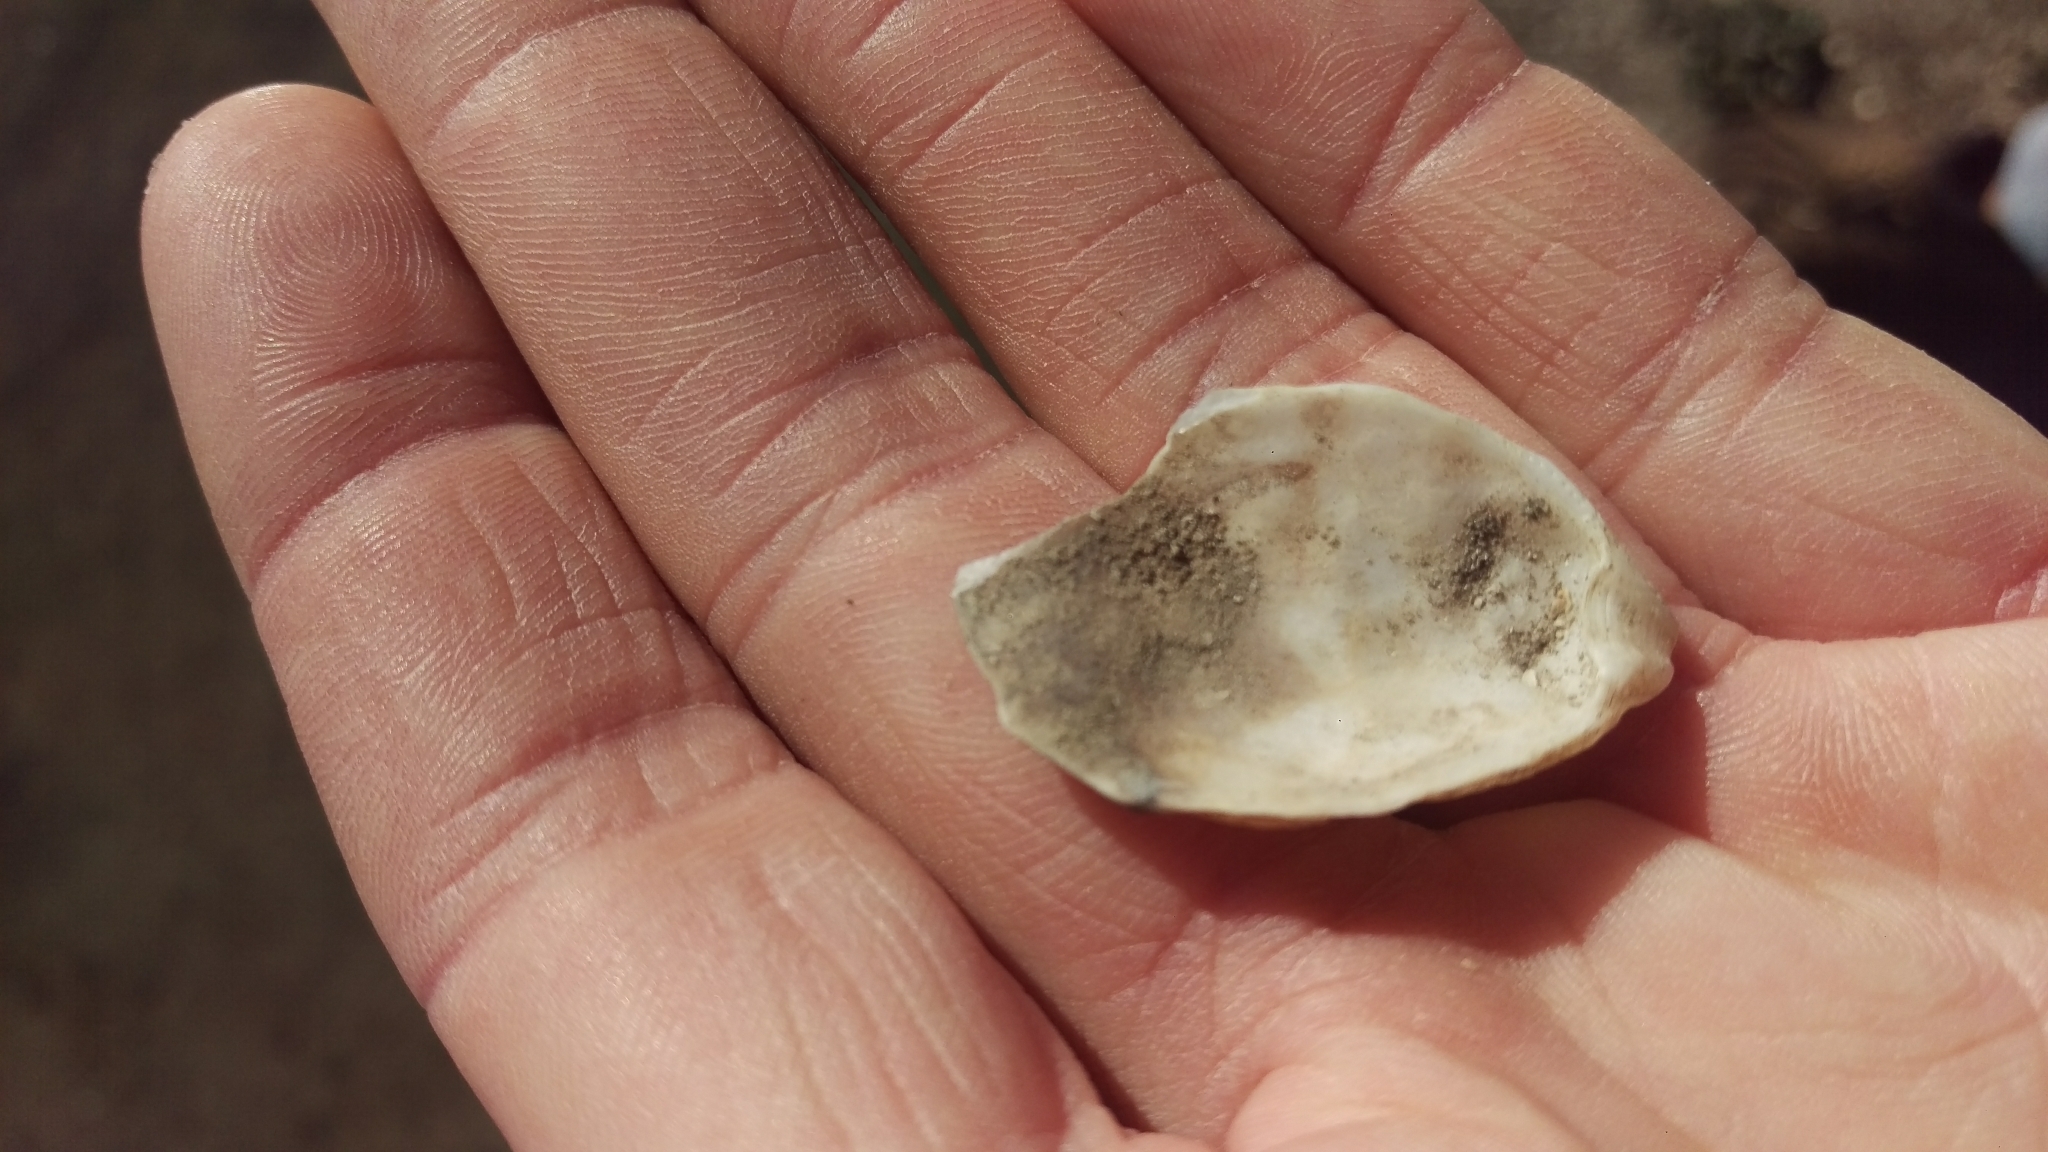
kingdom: Animalia
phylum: Mollusca
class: Bivalvia
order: Ostreida
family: Ostreidae
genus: Ostrea
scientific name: Ostrea lurida
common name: Olympia flat oyster
